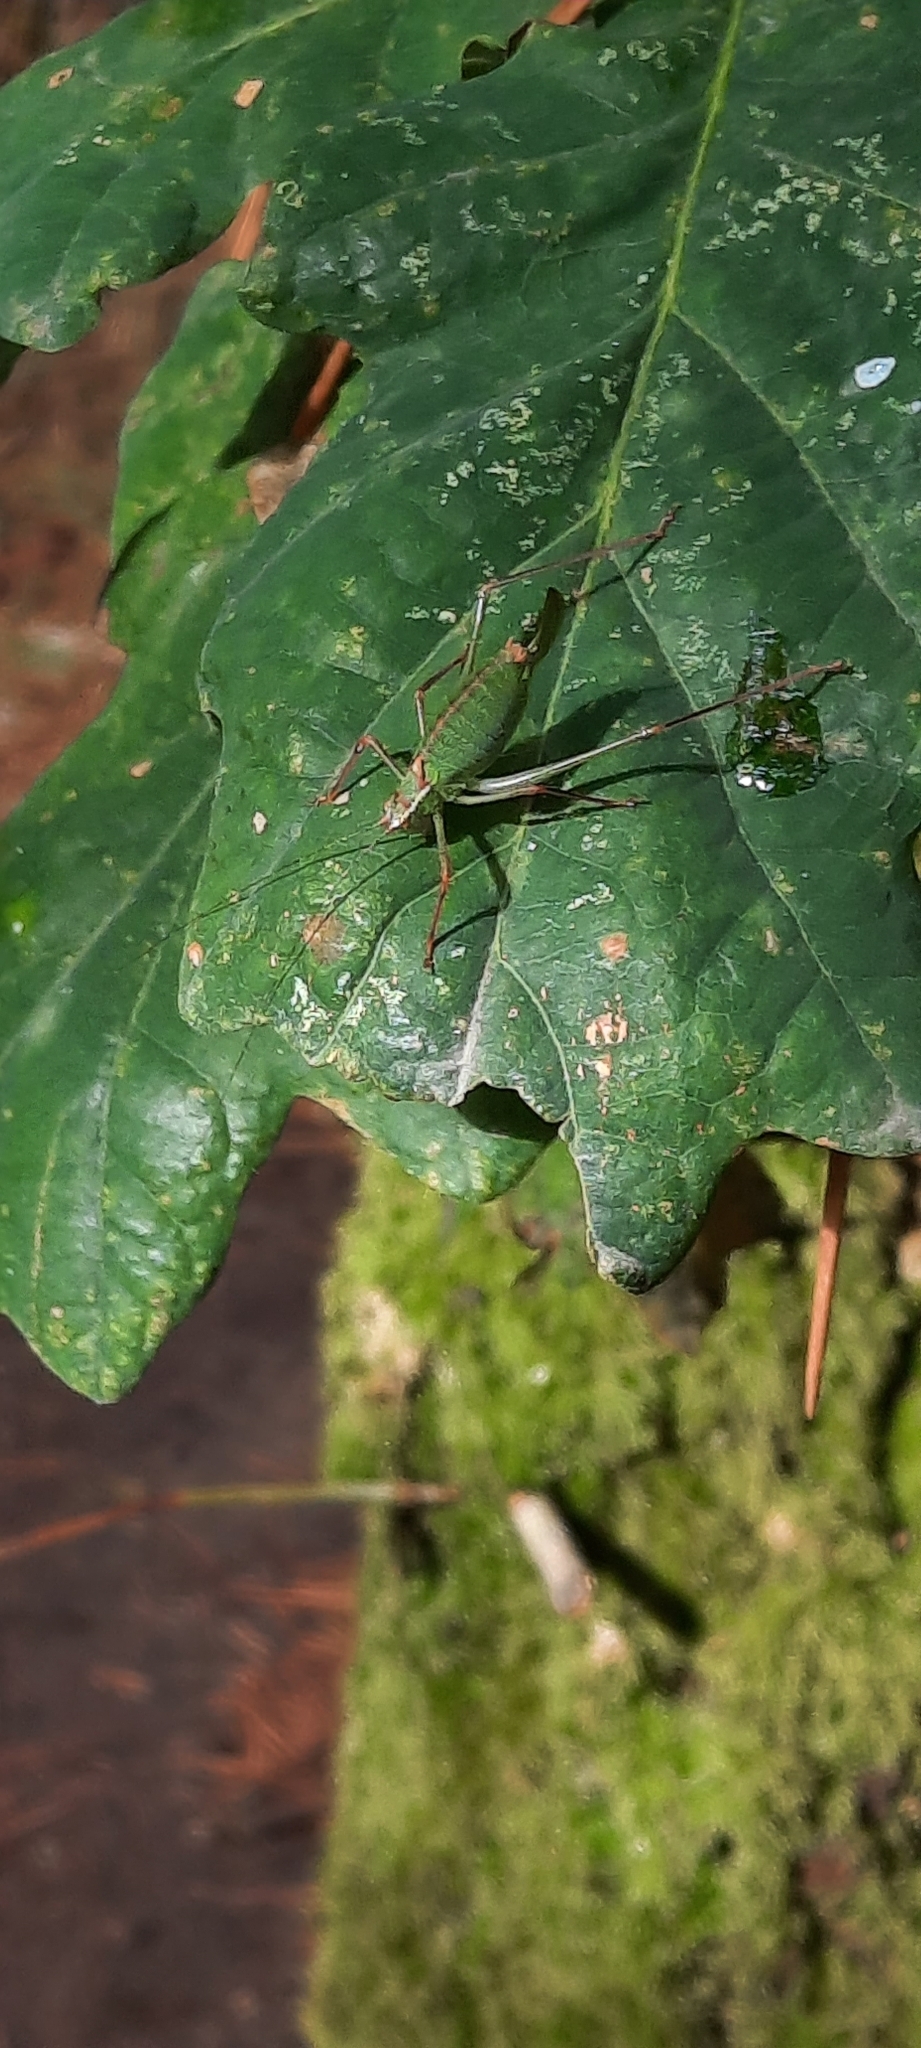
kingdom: Animalia
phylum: Arthropoda
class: Insecta
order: Orthoptera
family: Tettigoniidae
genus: Leptophyes
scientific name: Leptophyes punctatissima
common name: Speckled bush-cricket
